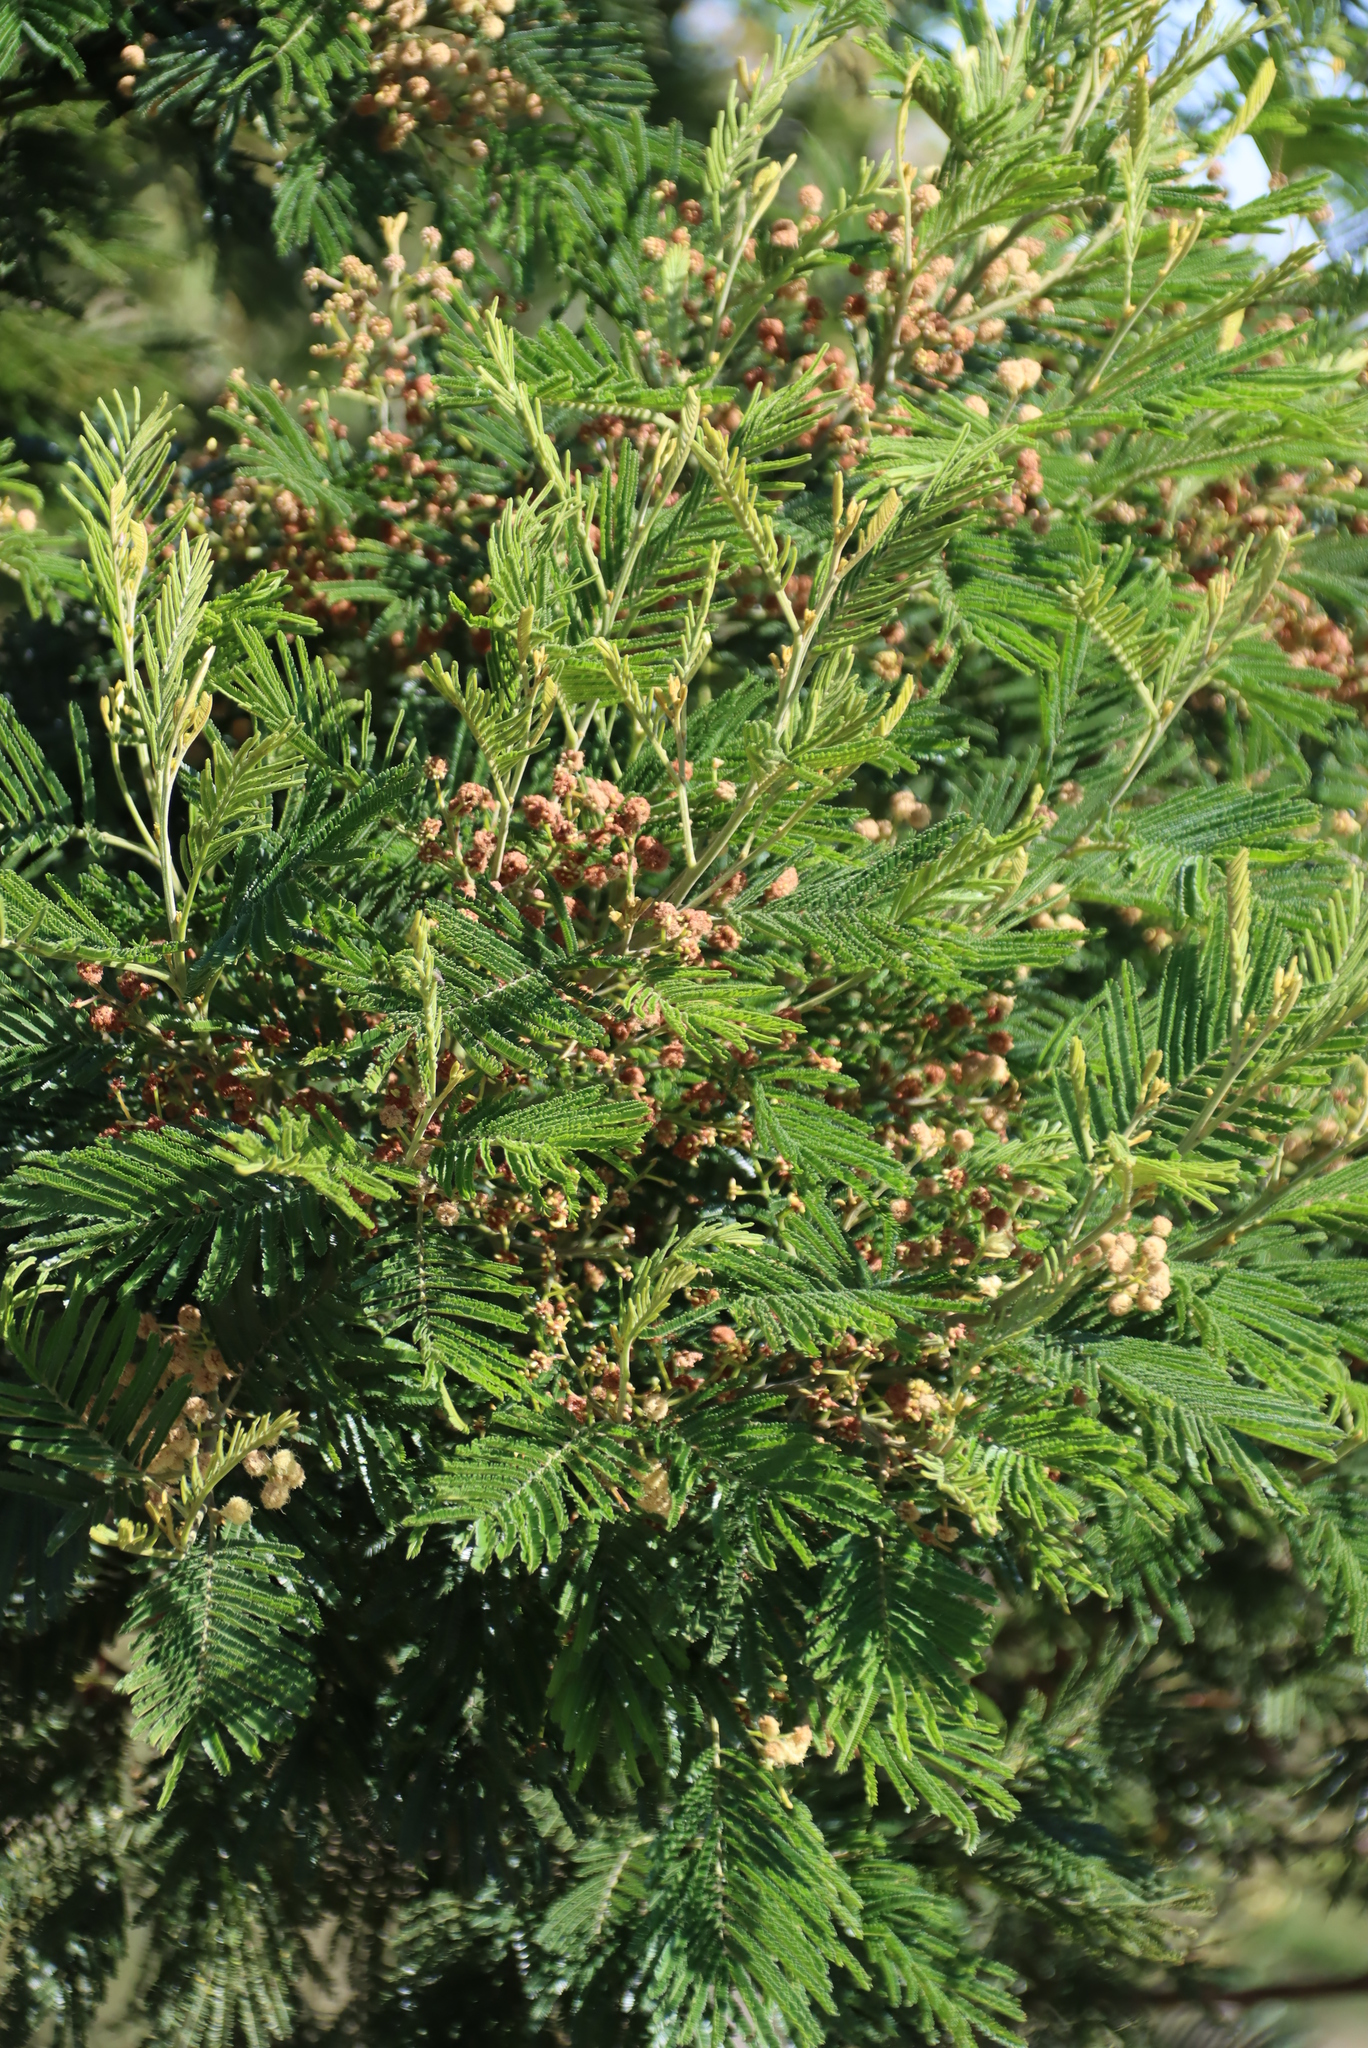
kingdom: Plantae
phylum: Tracheophyta
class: Magnoliopsida
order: Fabales
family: Fabaceae
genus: Acacia
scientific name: Acacia mearnsii
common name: Black wattle
